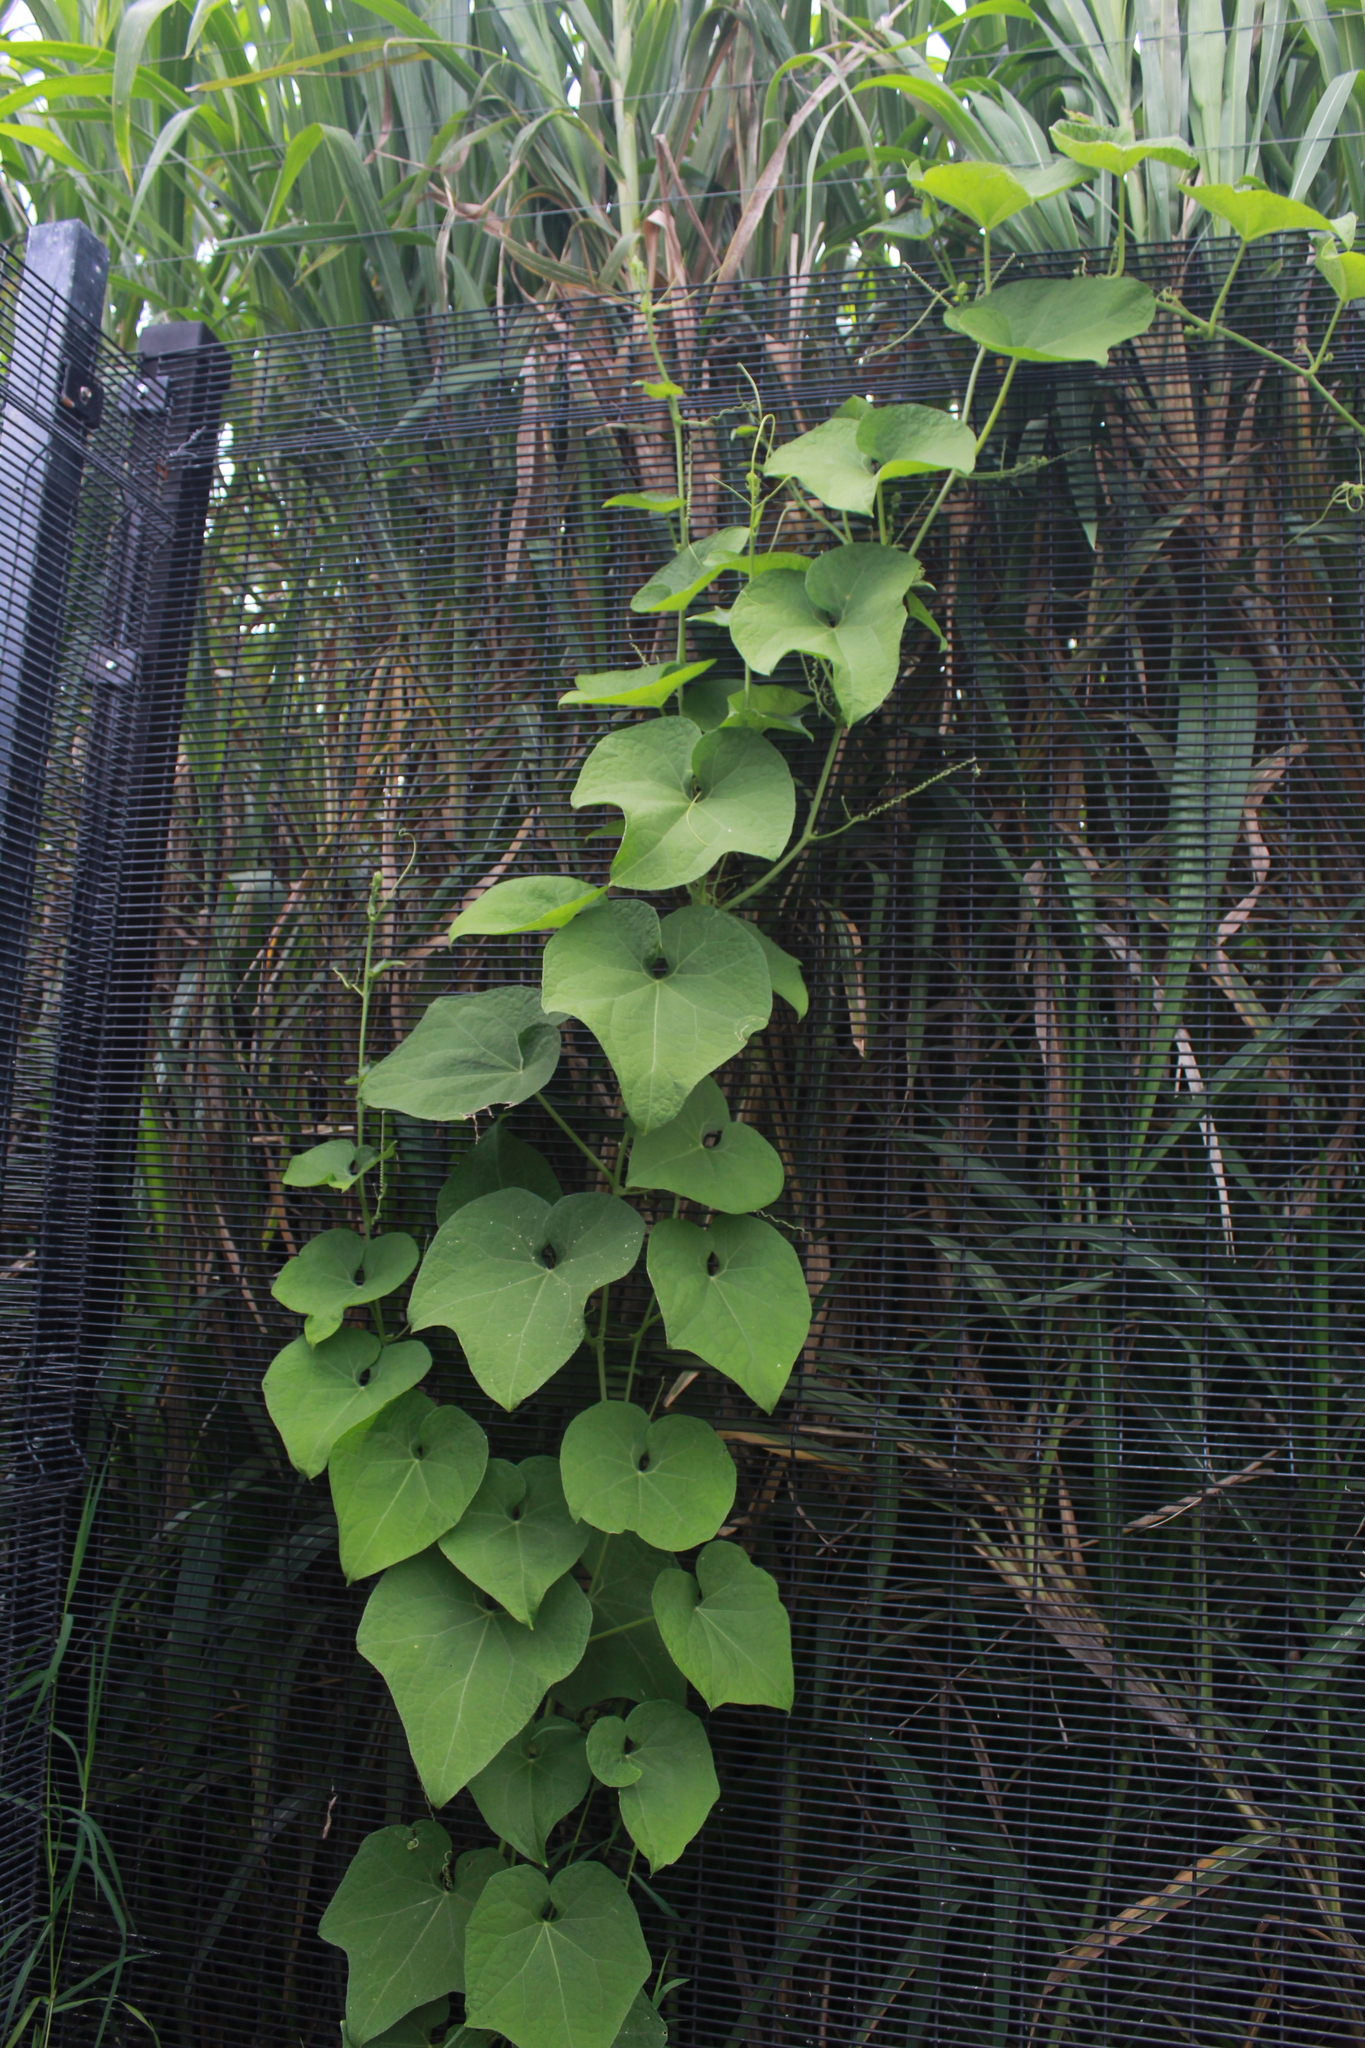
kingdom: Plantae
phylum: Tracheophyta
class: Magnoliopsida
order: Cucurbitales
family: Cucurbitaceae
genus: Sechium
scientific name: Sechium edule
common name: Chayote
